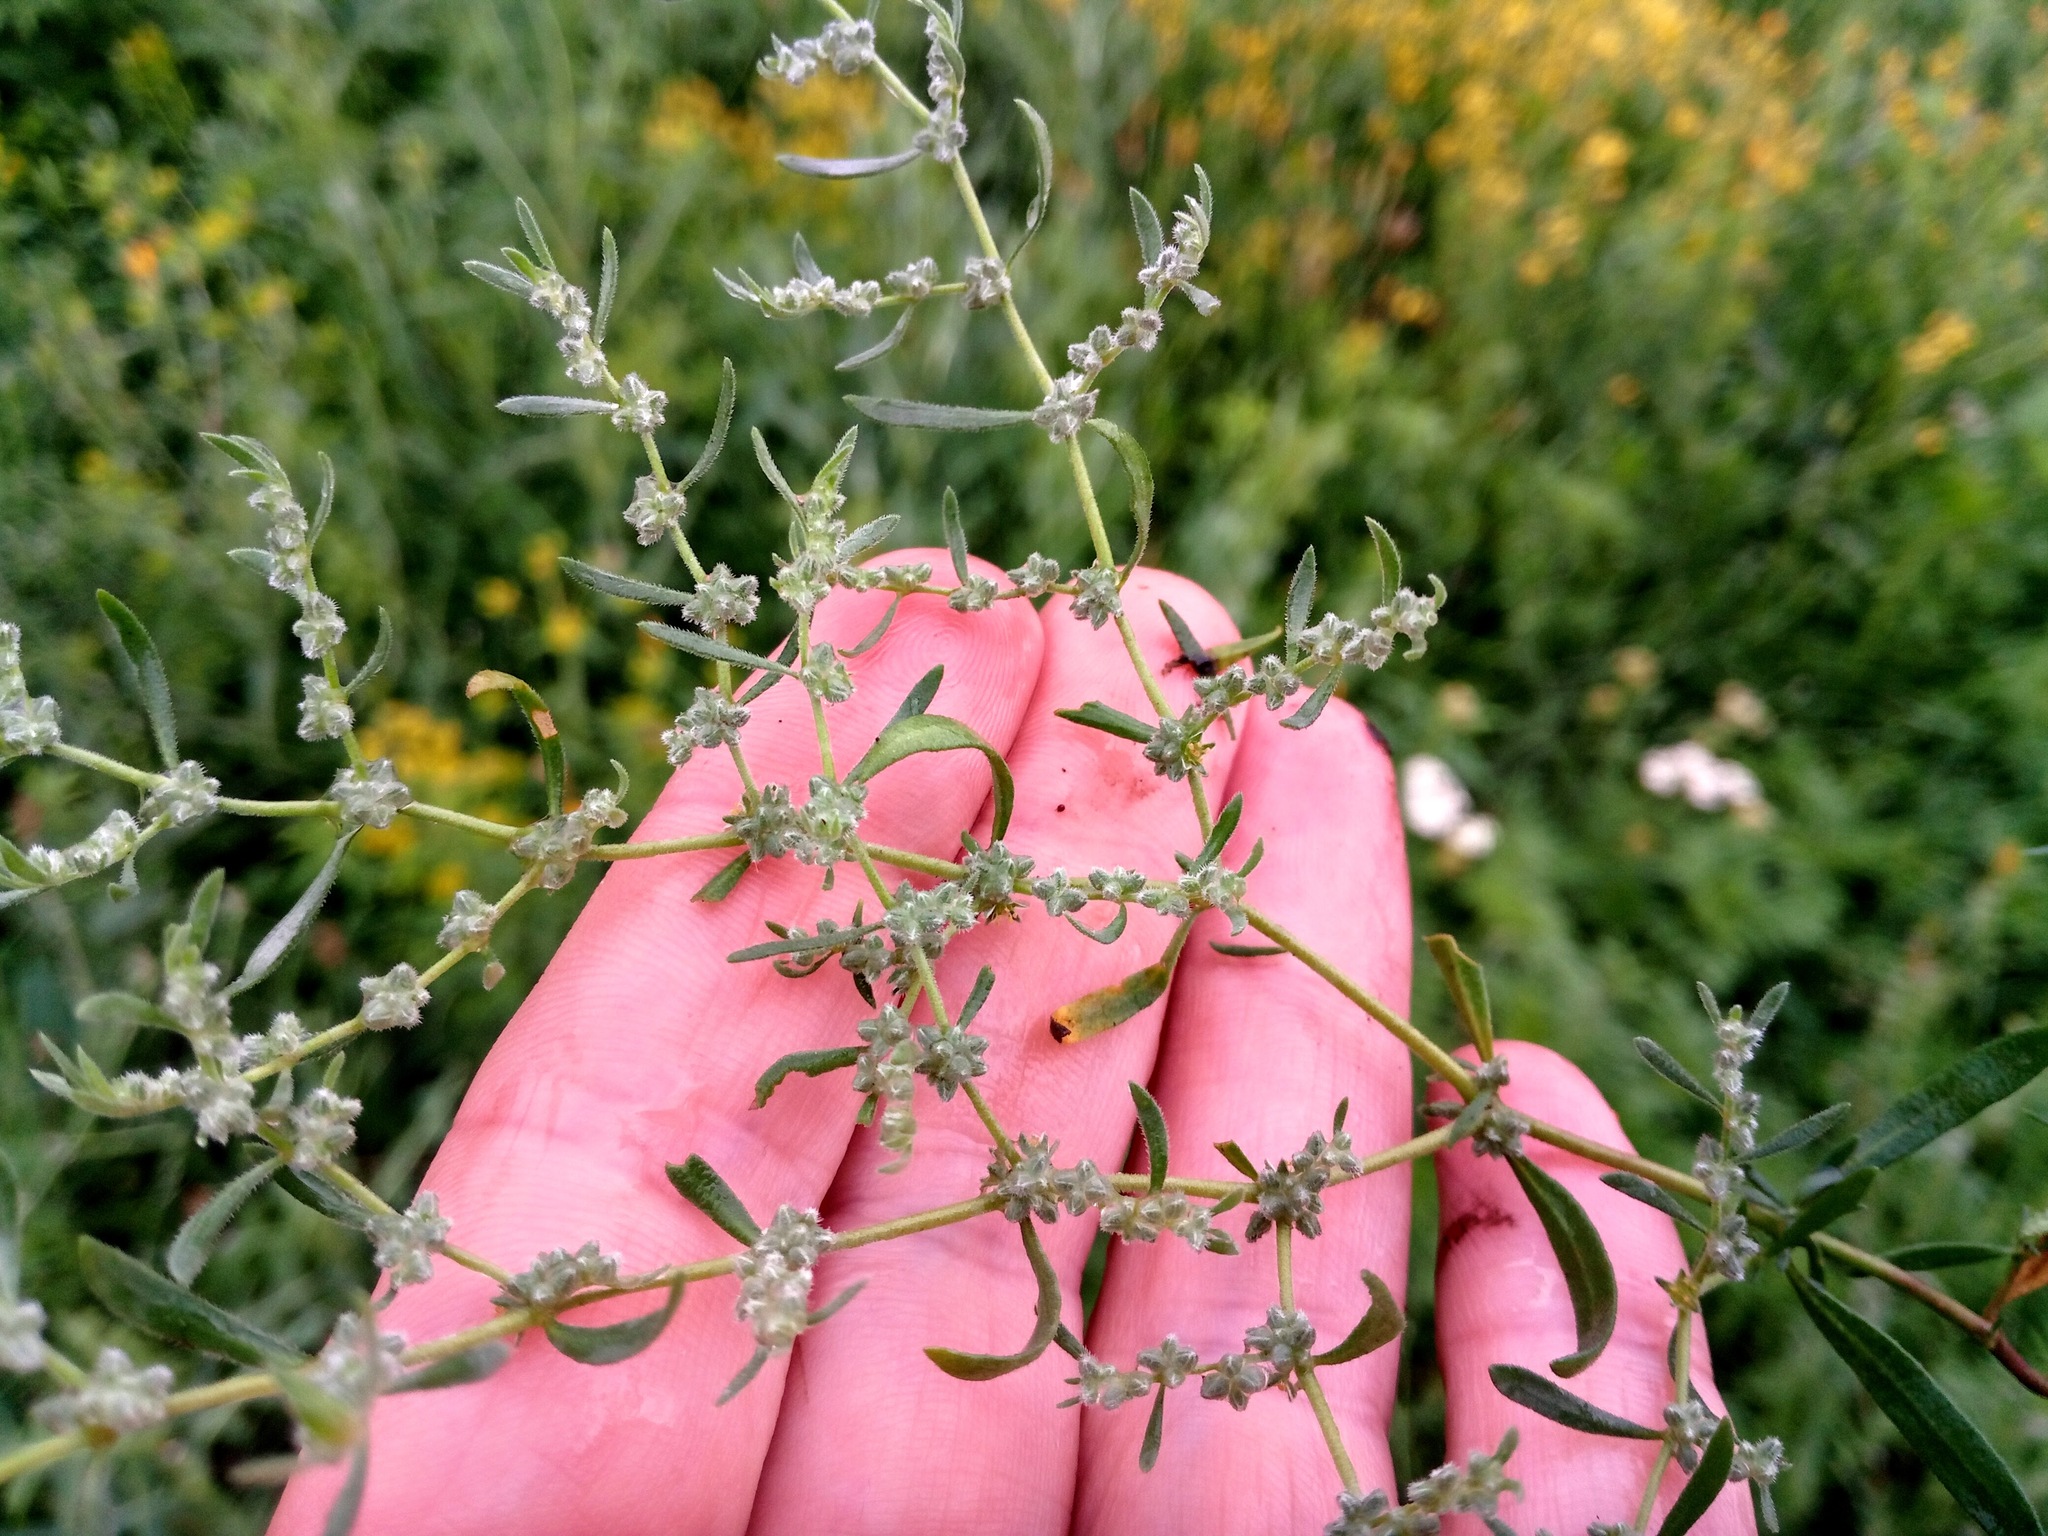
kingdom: Plantae
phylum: Tracheophyta
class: Magnoliopsida
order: Caryophyllales
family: Caryophyllaceae
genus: Herniaria
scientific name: Herniaria incana
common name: Gray rupturewort
